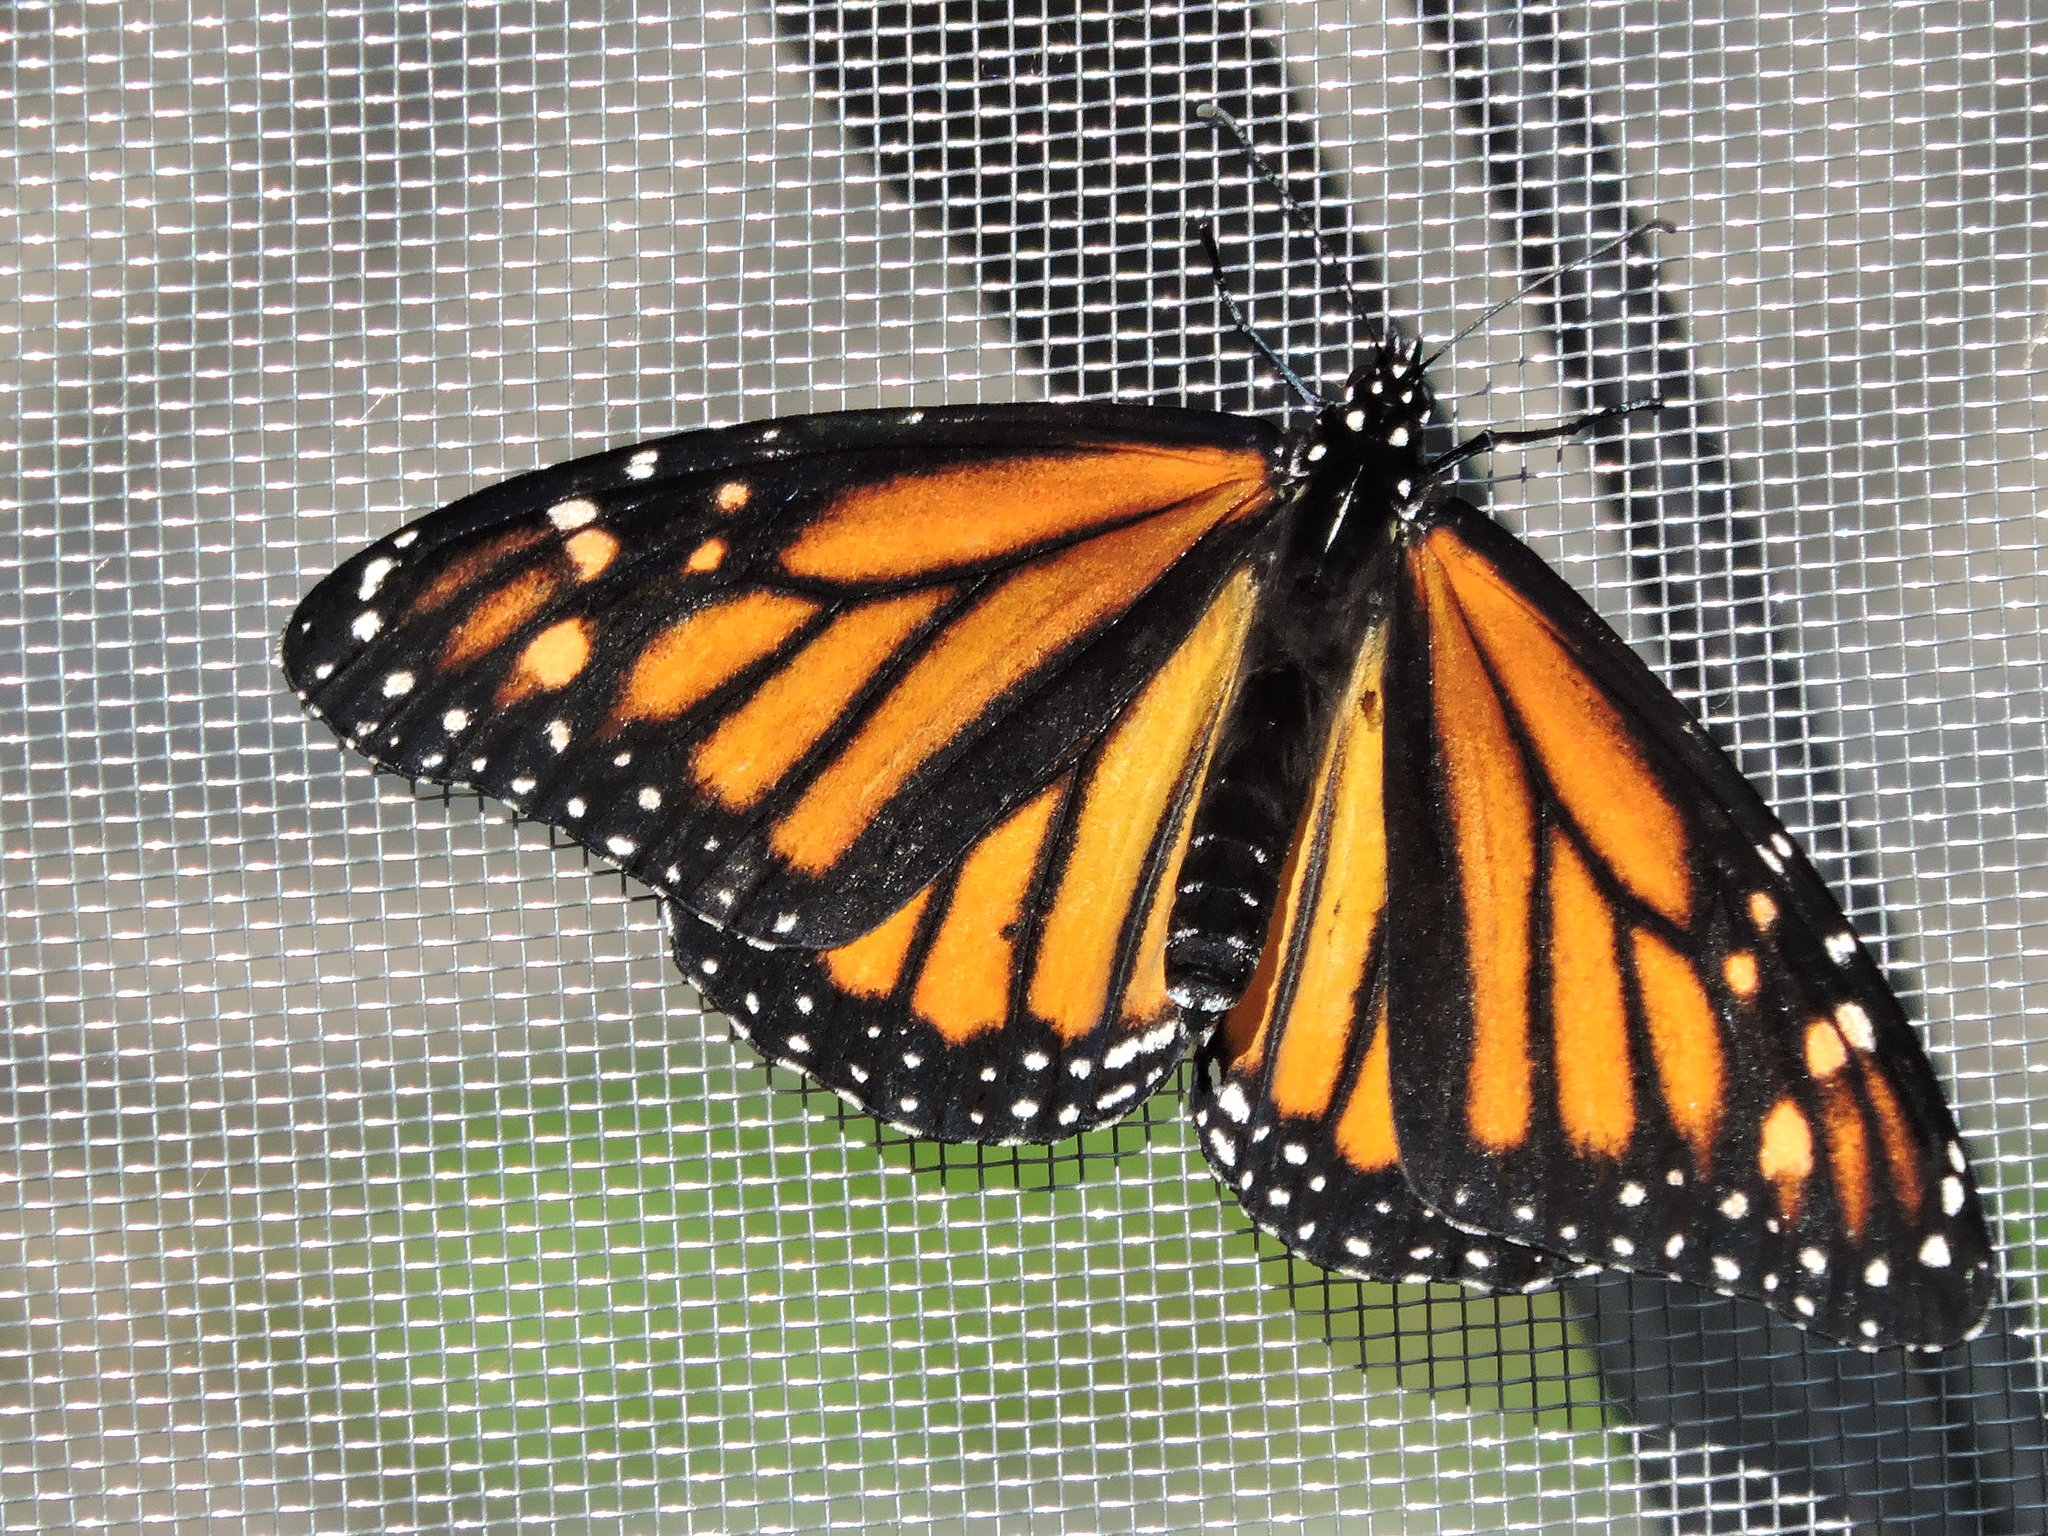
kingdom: Animalia
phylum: Arthropoda
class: Insecta
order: Lepidoptera
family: Nymphalidae
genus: Danaus
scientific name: Danaus plexippus
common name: Monarch
